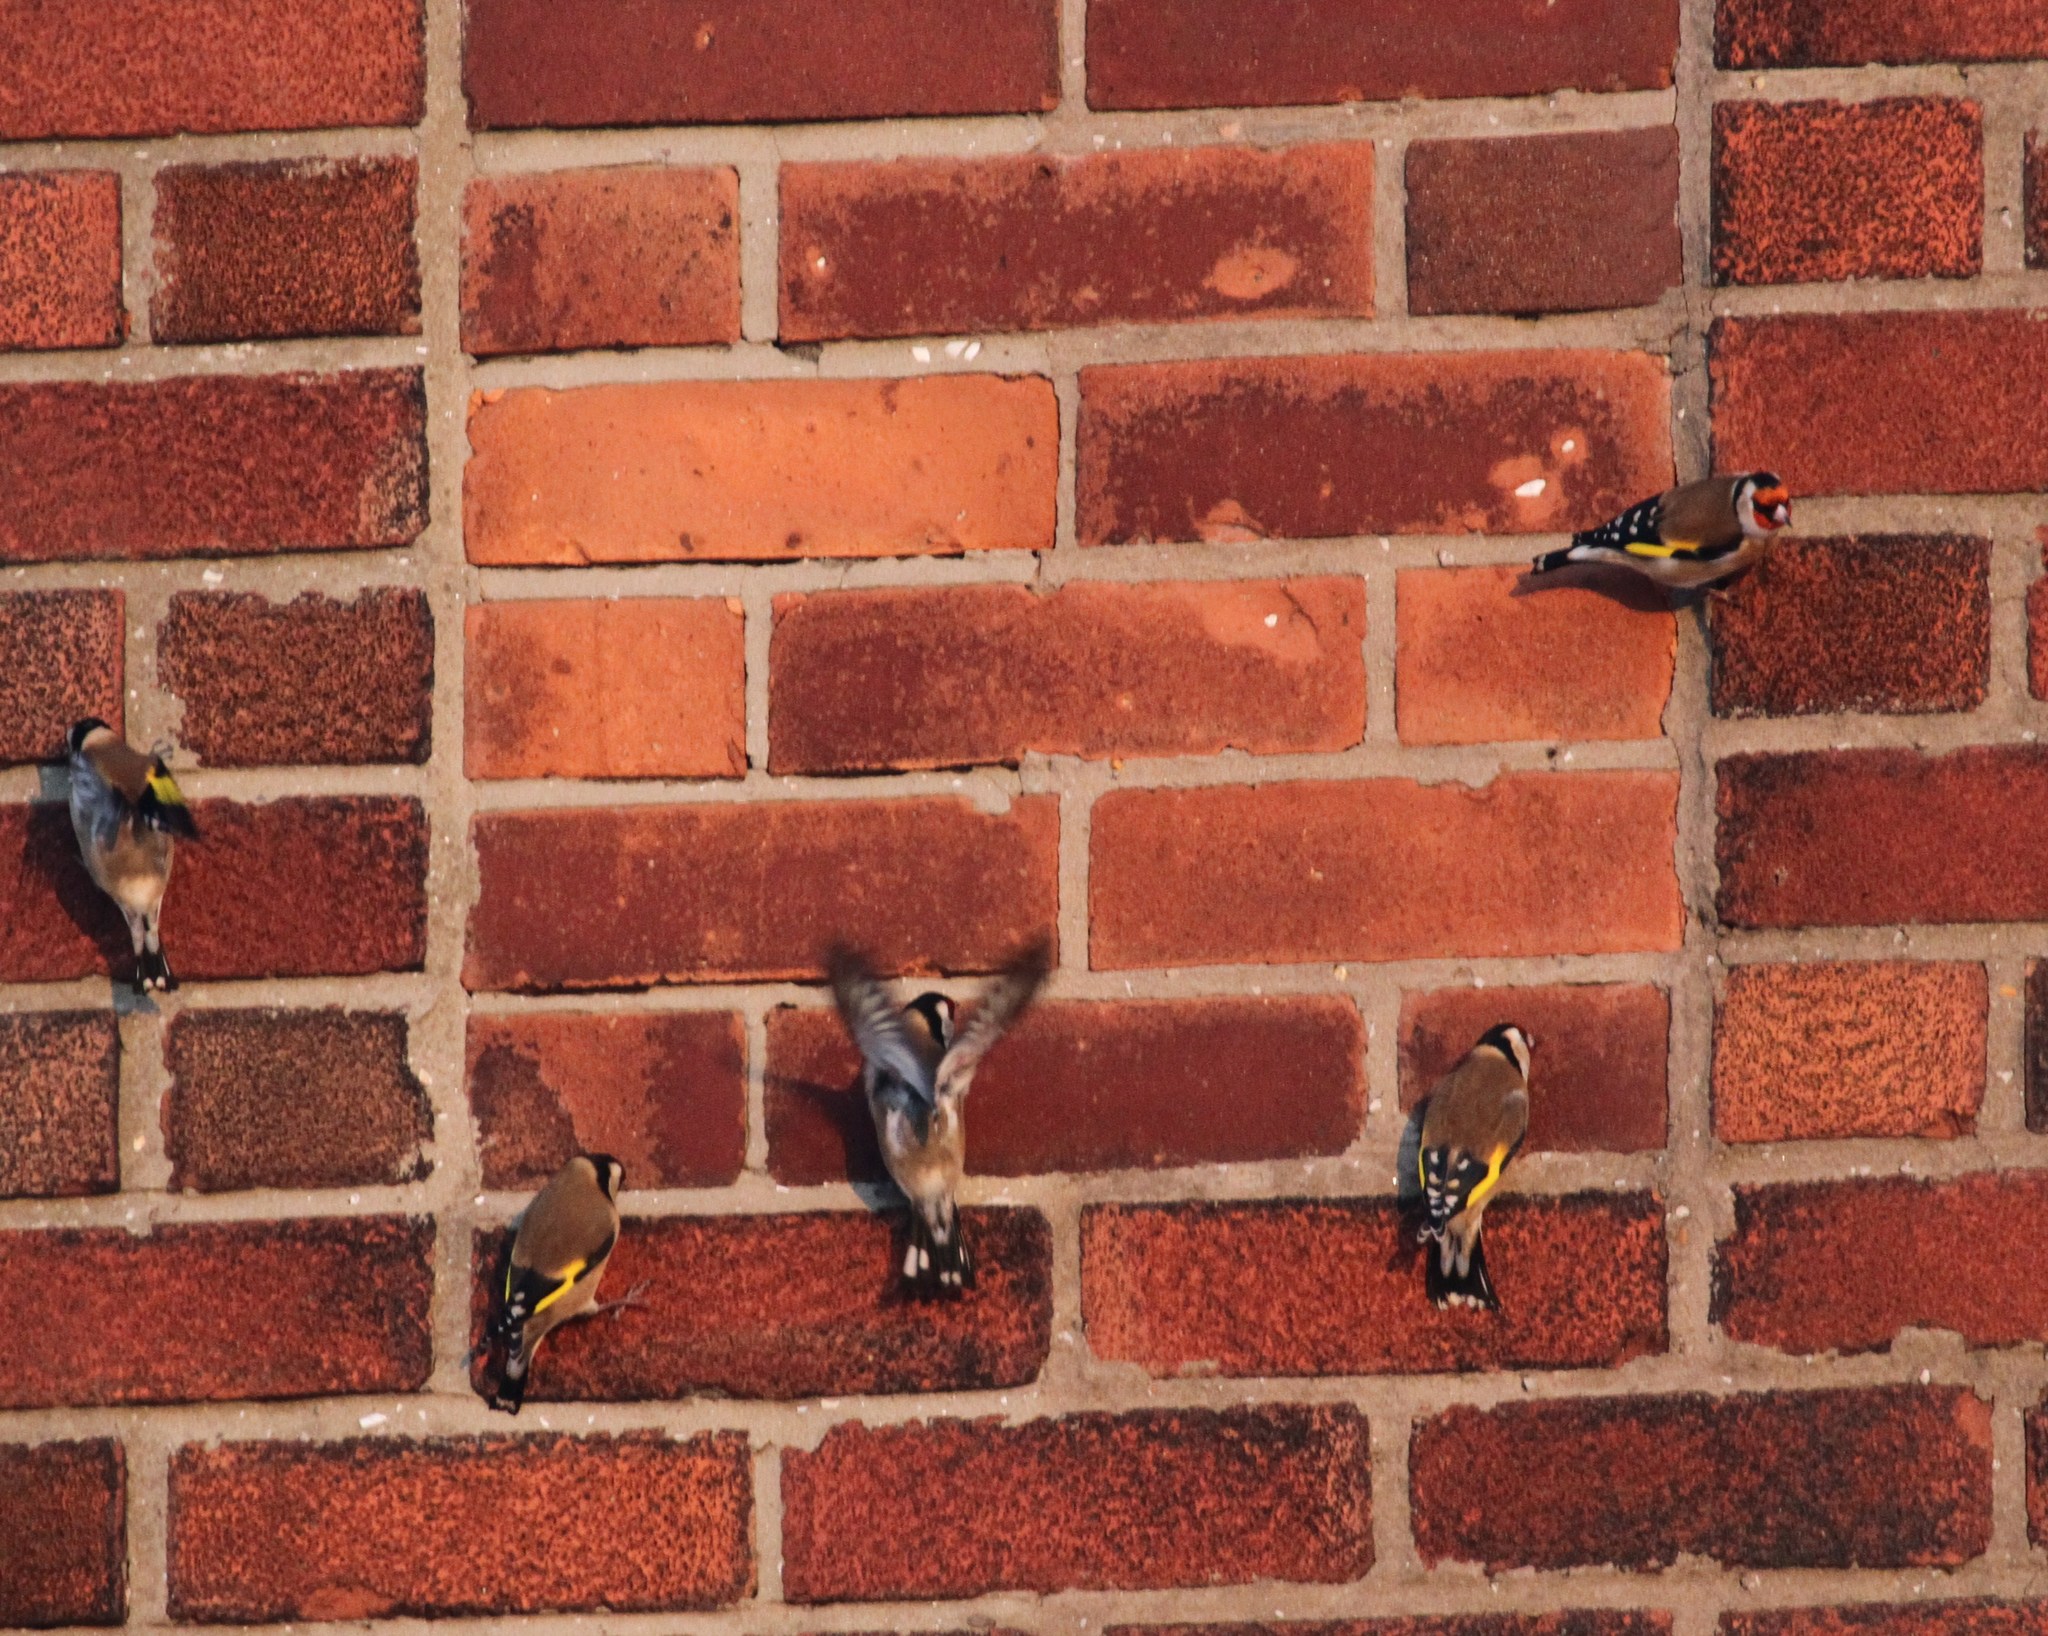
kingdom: Animalia
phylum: Chordata
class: Aves
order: Passeriformes
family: Fringillidae
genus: Carduelis
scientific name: Carduelis carduelis
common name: European goldfinch
